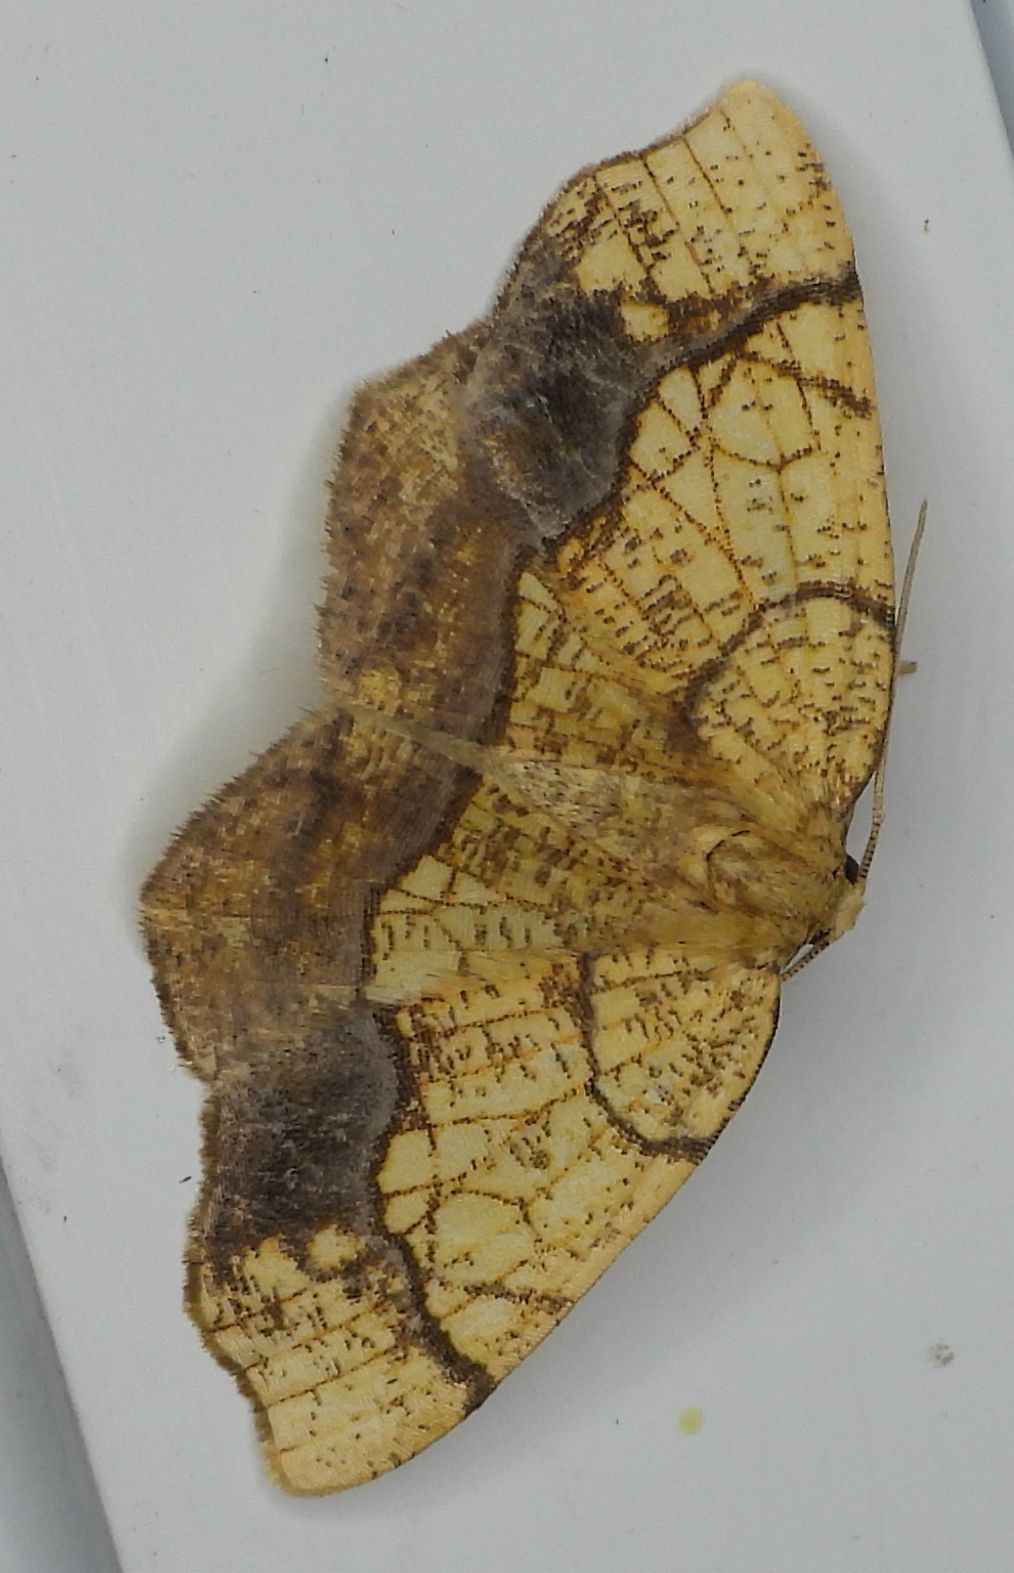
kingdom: Animalia
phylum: Arthropoda
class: Insecta
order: Lepidoptera
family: Geometridae
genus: Nematocampa
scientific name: Nematocampa resistaria
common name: Horned spanworm moth
